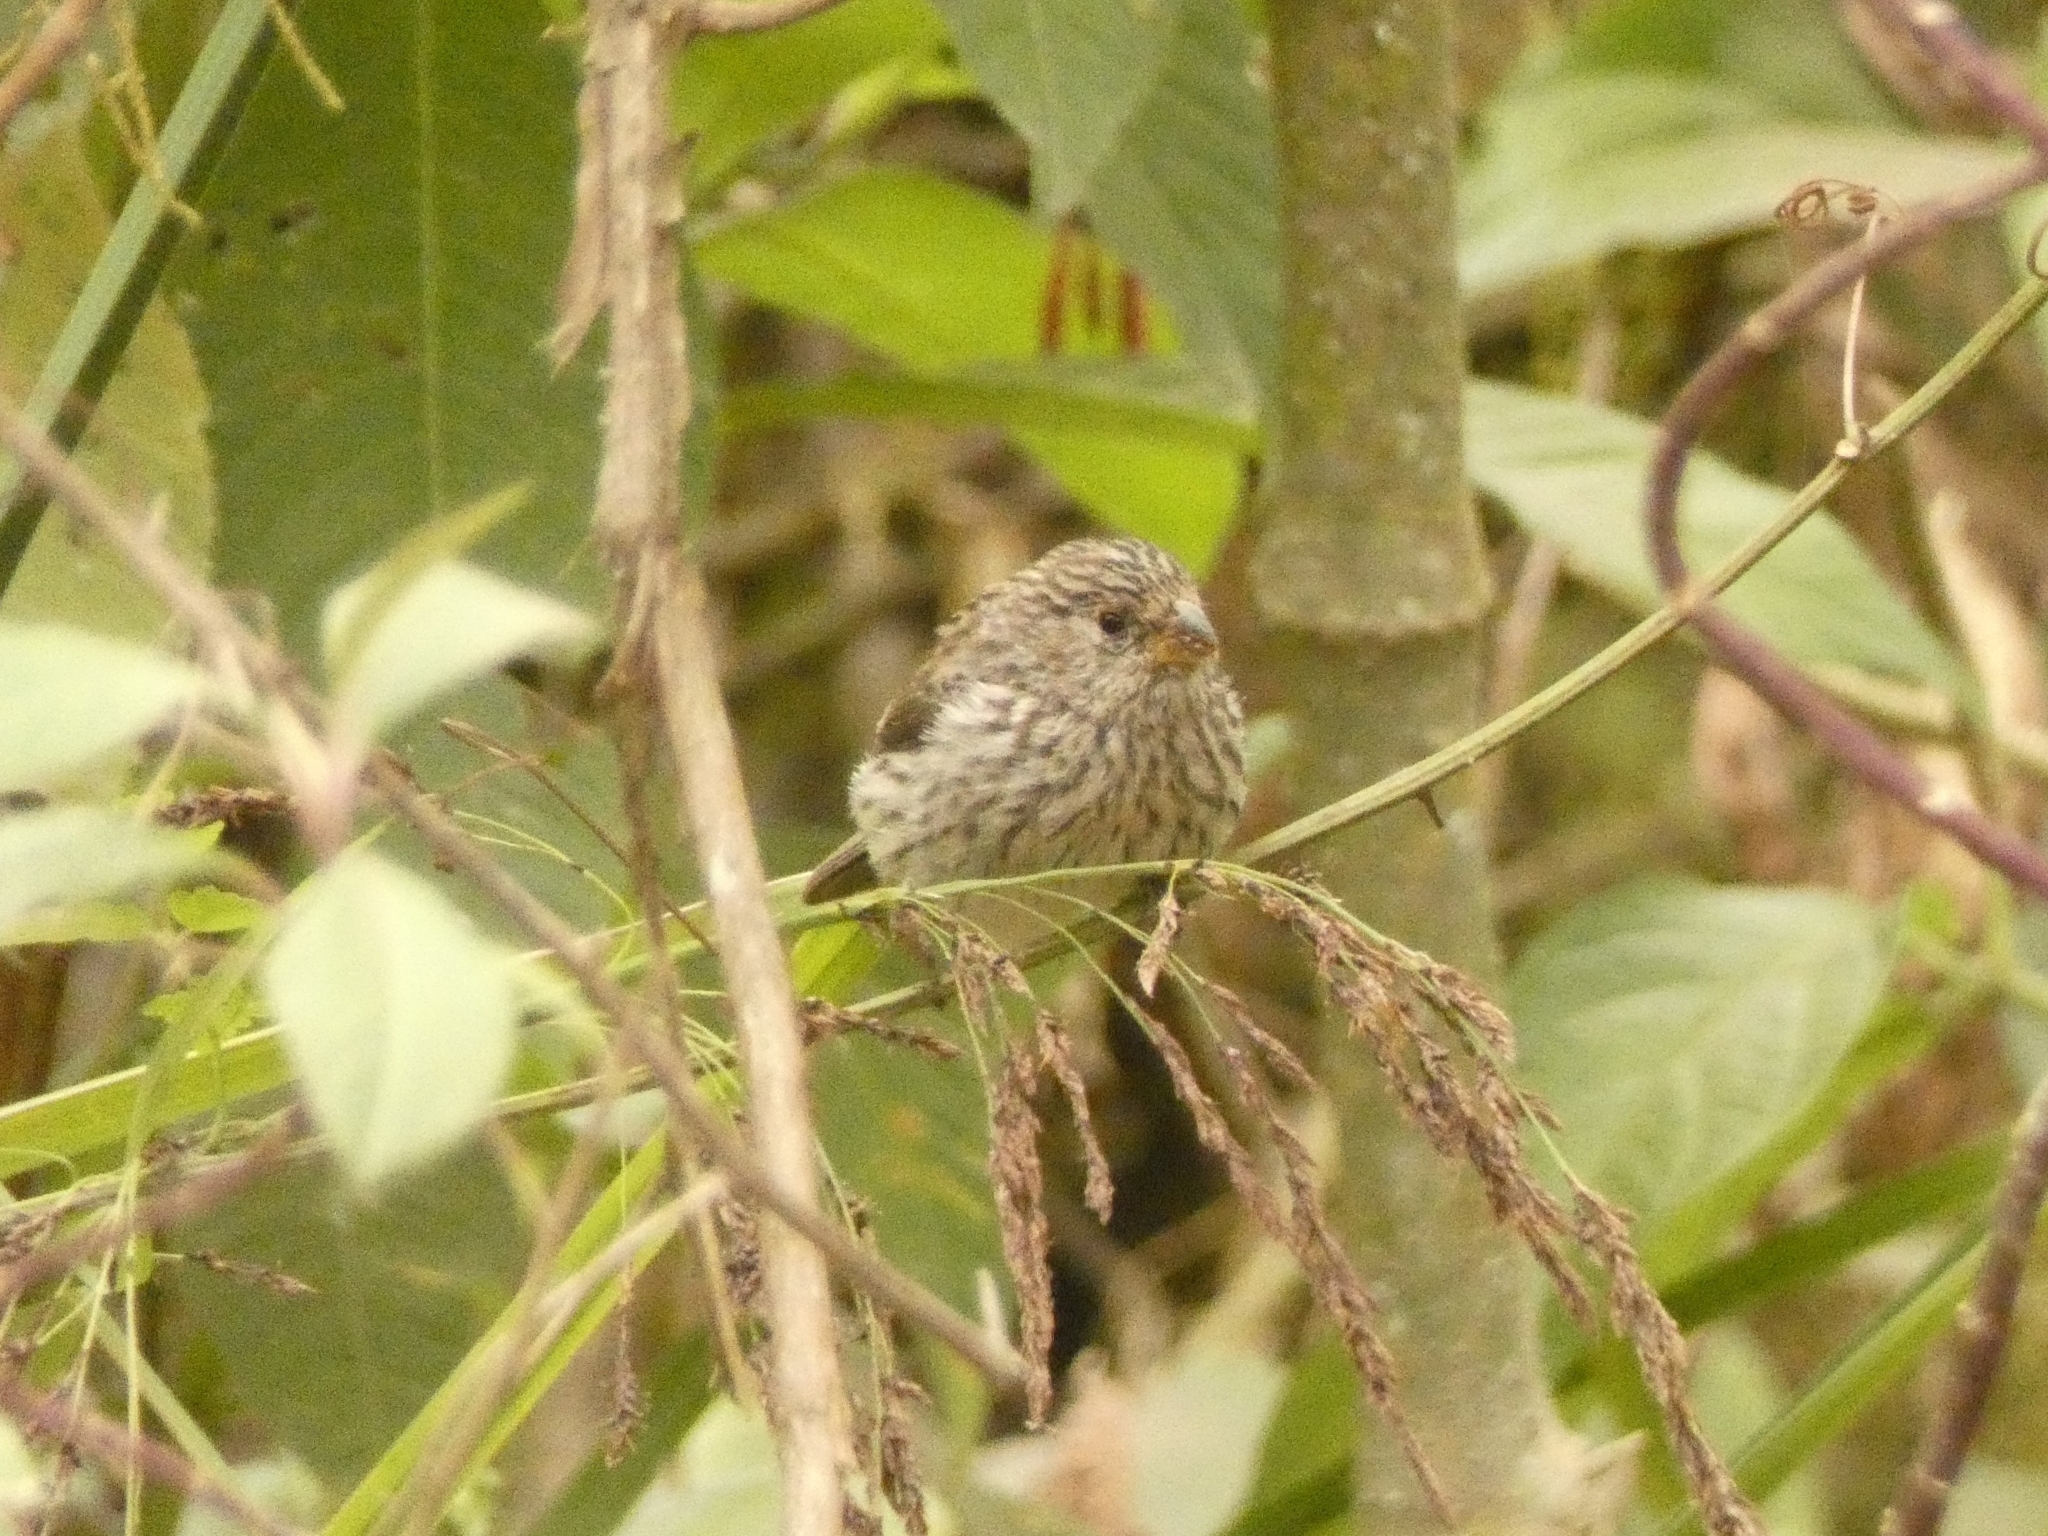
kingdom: Animalia
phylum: Chordata
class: Aves
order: Passeriformes
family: Thraupidae
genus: Catamenia
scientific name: Catamenia analis
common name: Band-tailed seedeater
